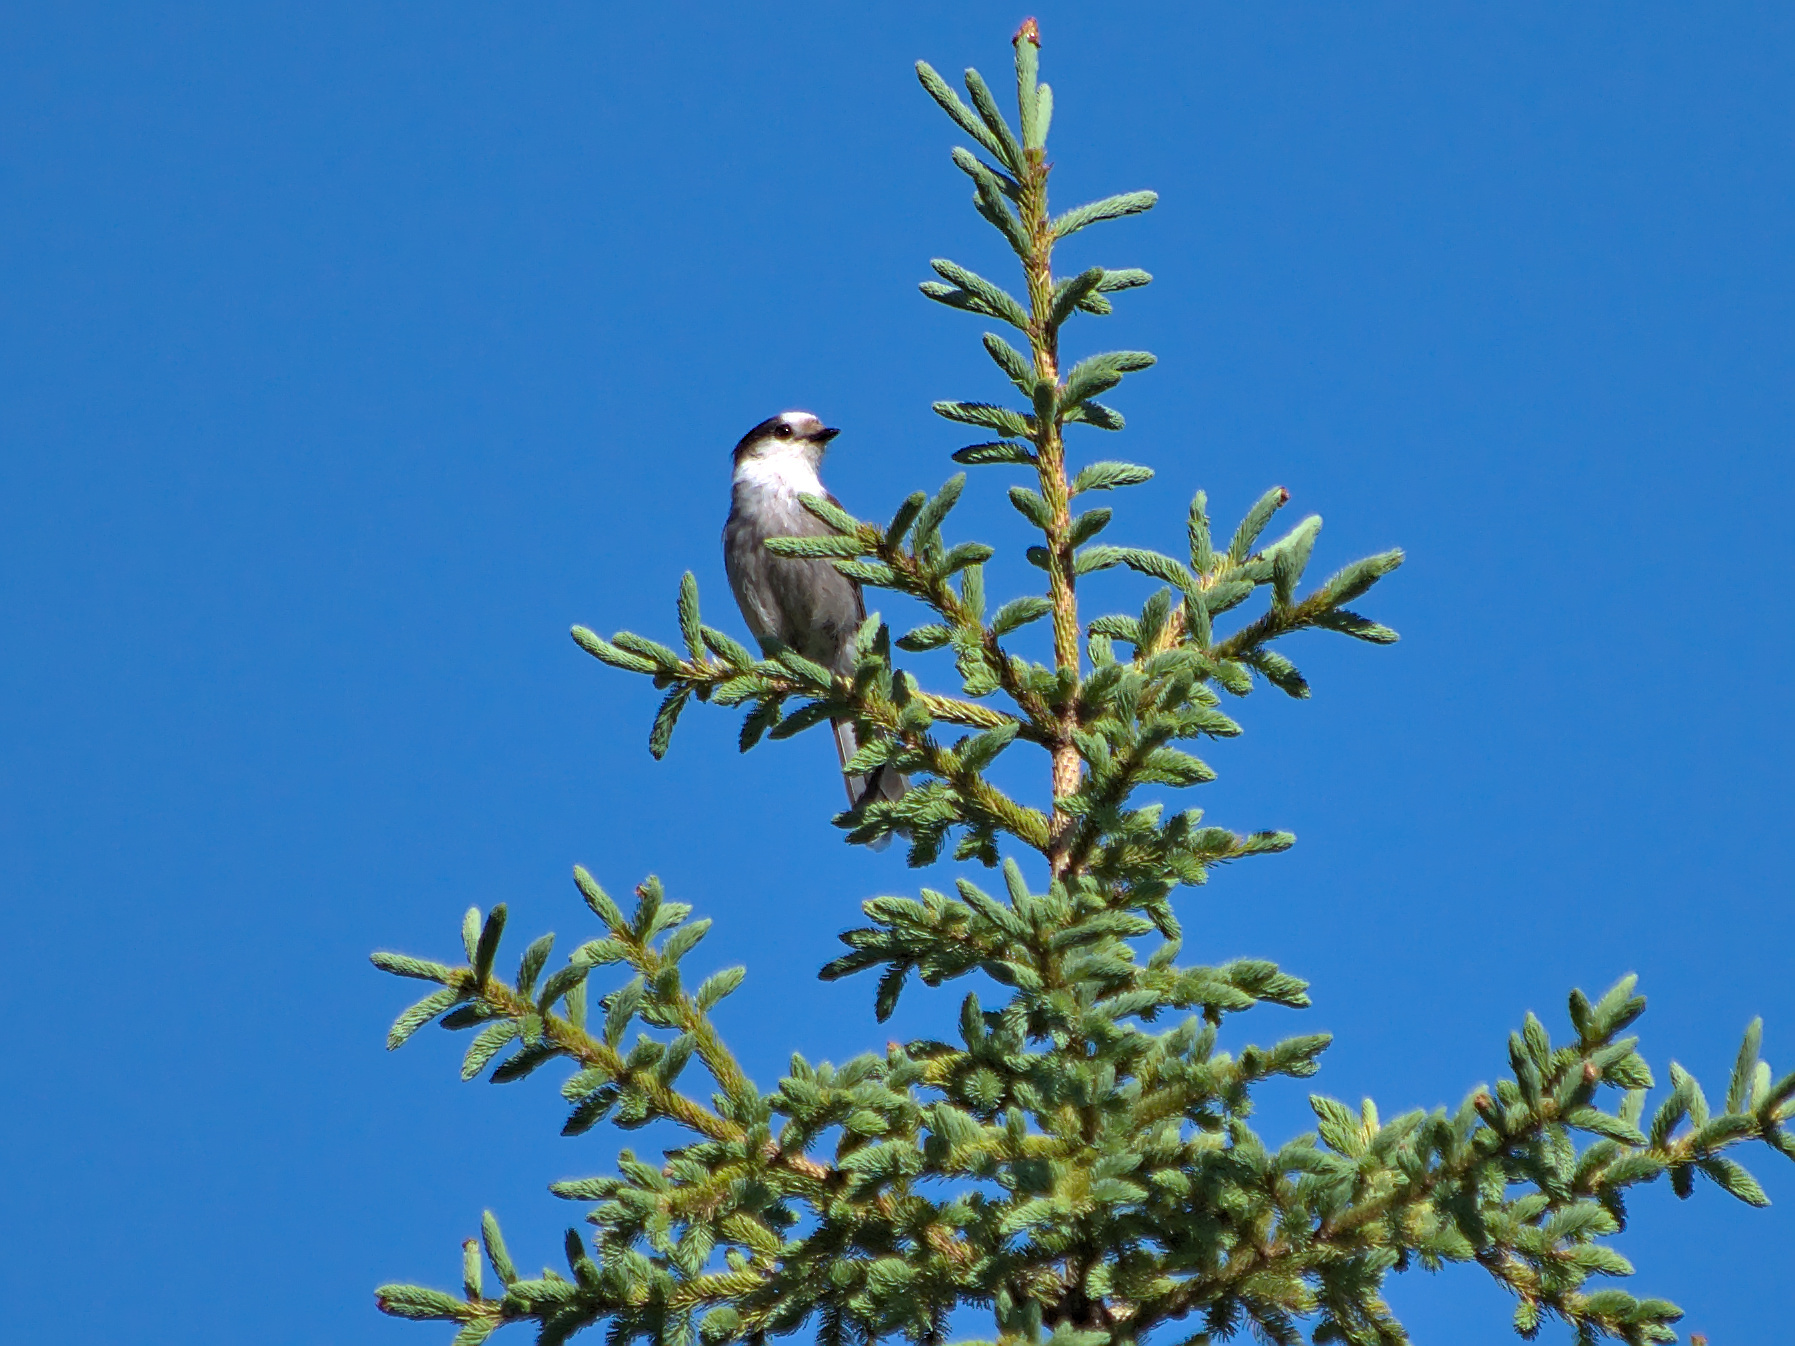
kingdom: Animalia
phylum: Chordata
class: Aves
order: Passeriformes
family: Corvidae
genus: Perisoreus
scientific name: Perisoreus canadensis
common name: Gray jay
